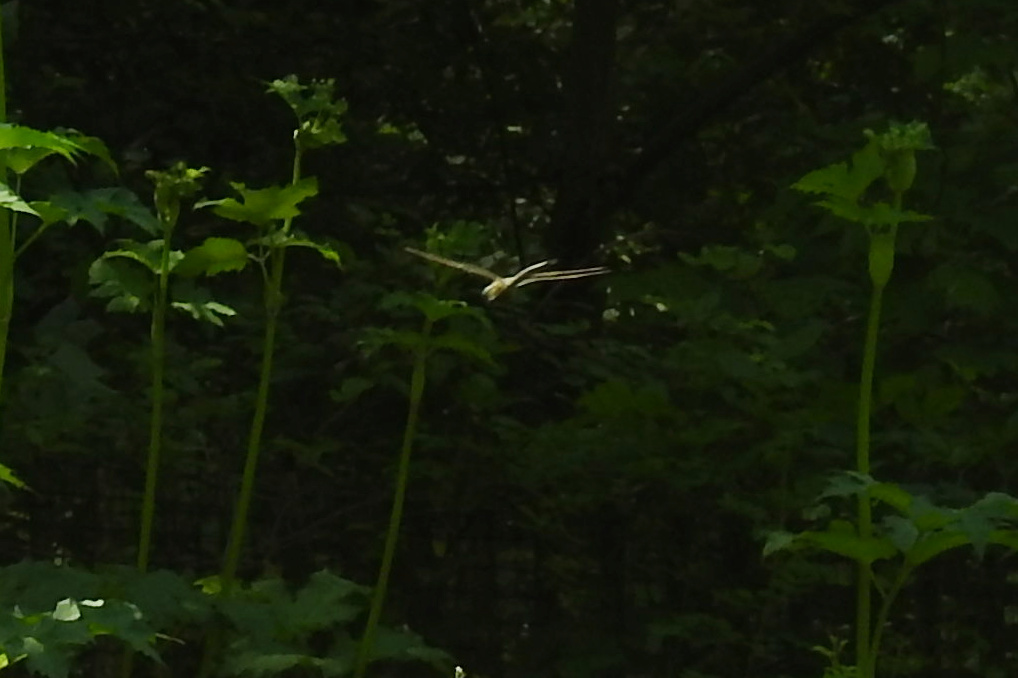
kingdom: Animalia
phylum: Arthropoda
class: Insecta
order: Odonata
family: Aeshnidae
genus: Anax
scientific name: Anax junius
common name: Common green darner
